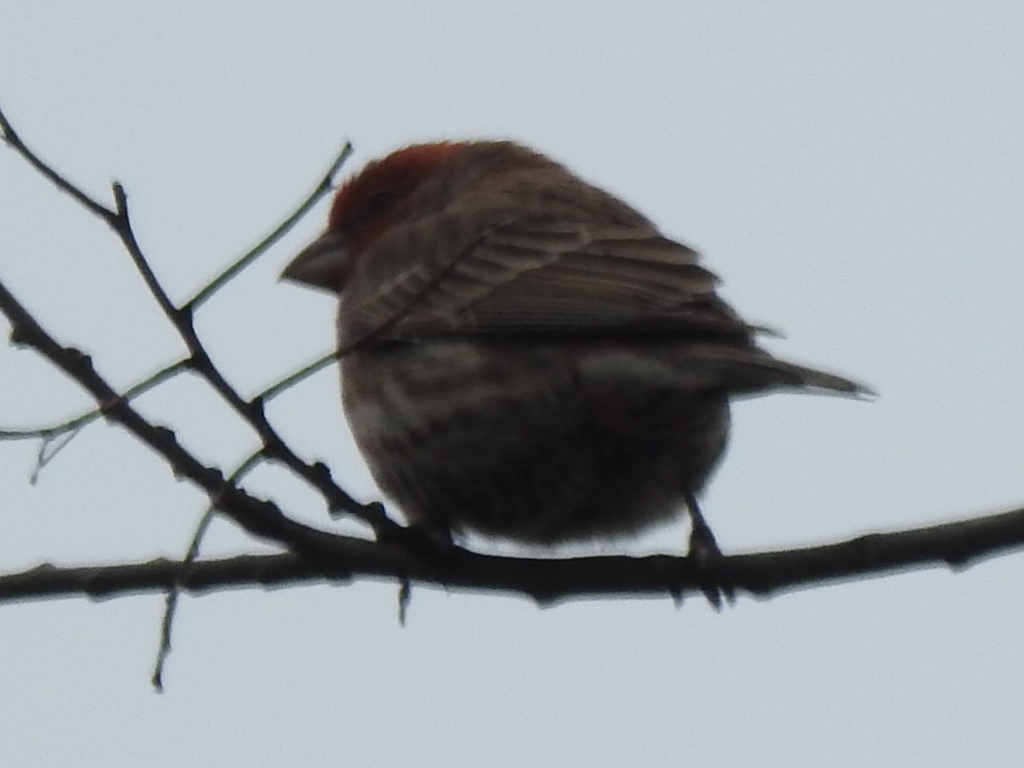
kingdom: Animalia
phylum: Chordata
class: Aves
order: Passeriformes
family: Fringillidae
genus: Haemorhous
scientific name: Haemorhous mexicanus
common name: House finch
